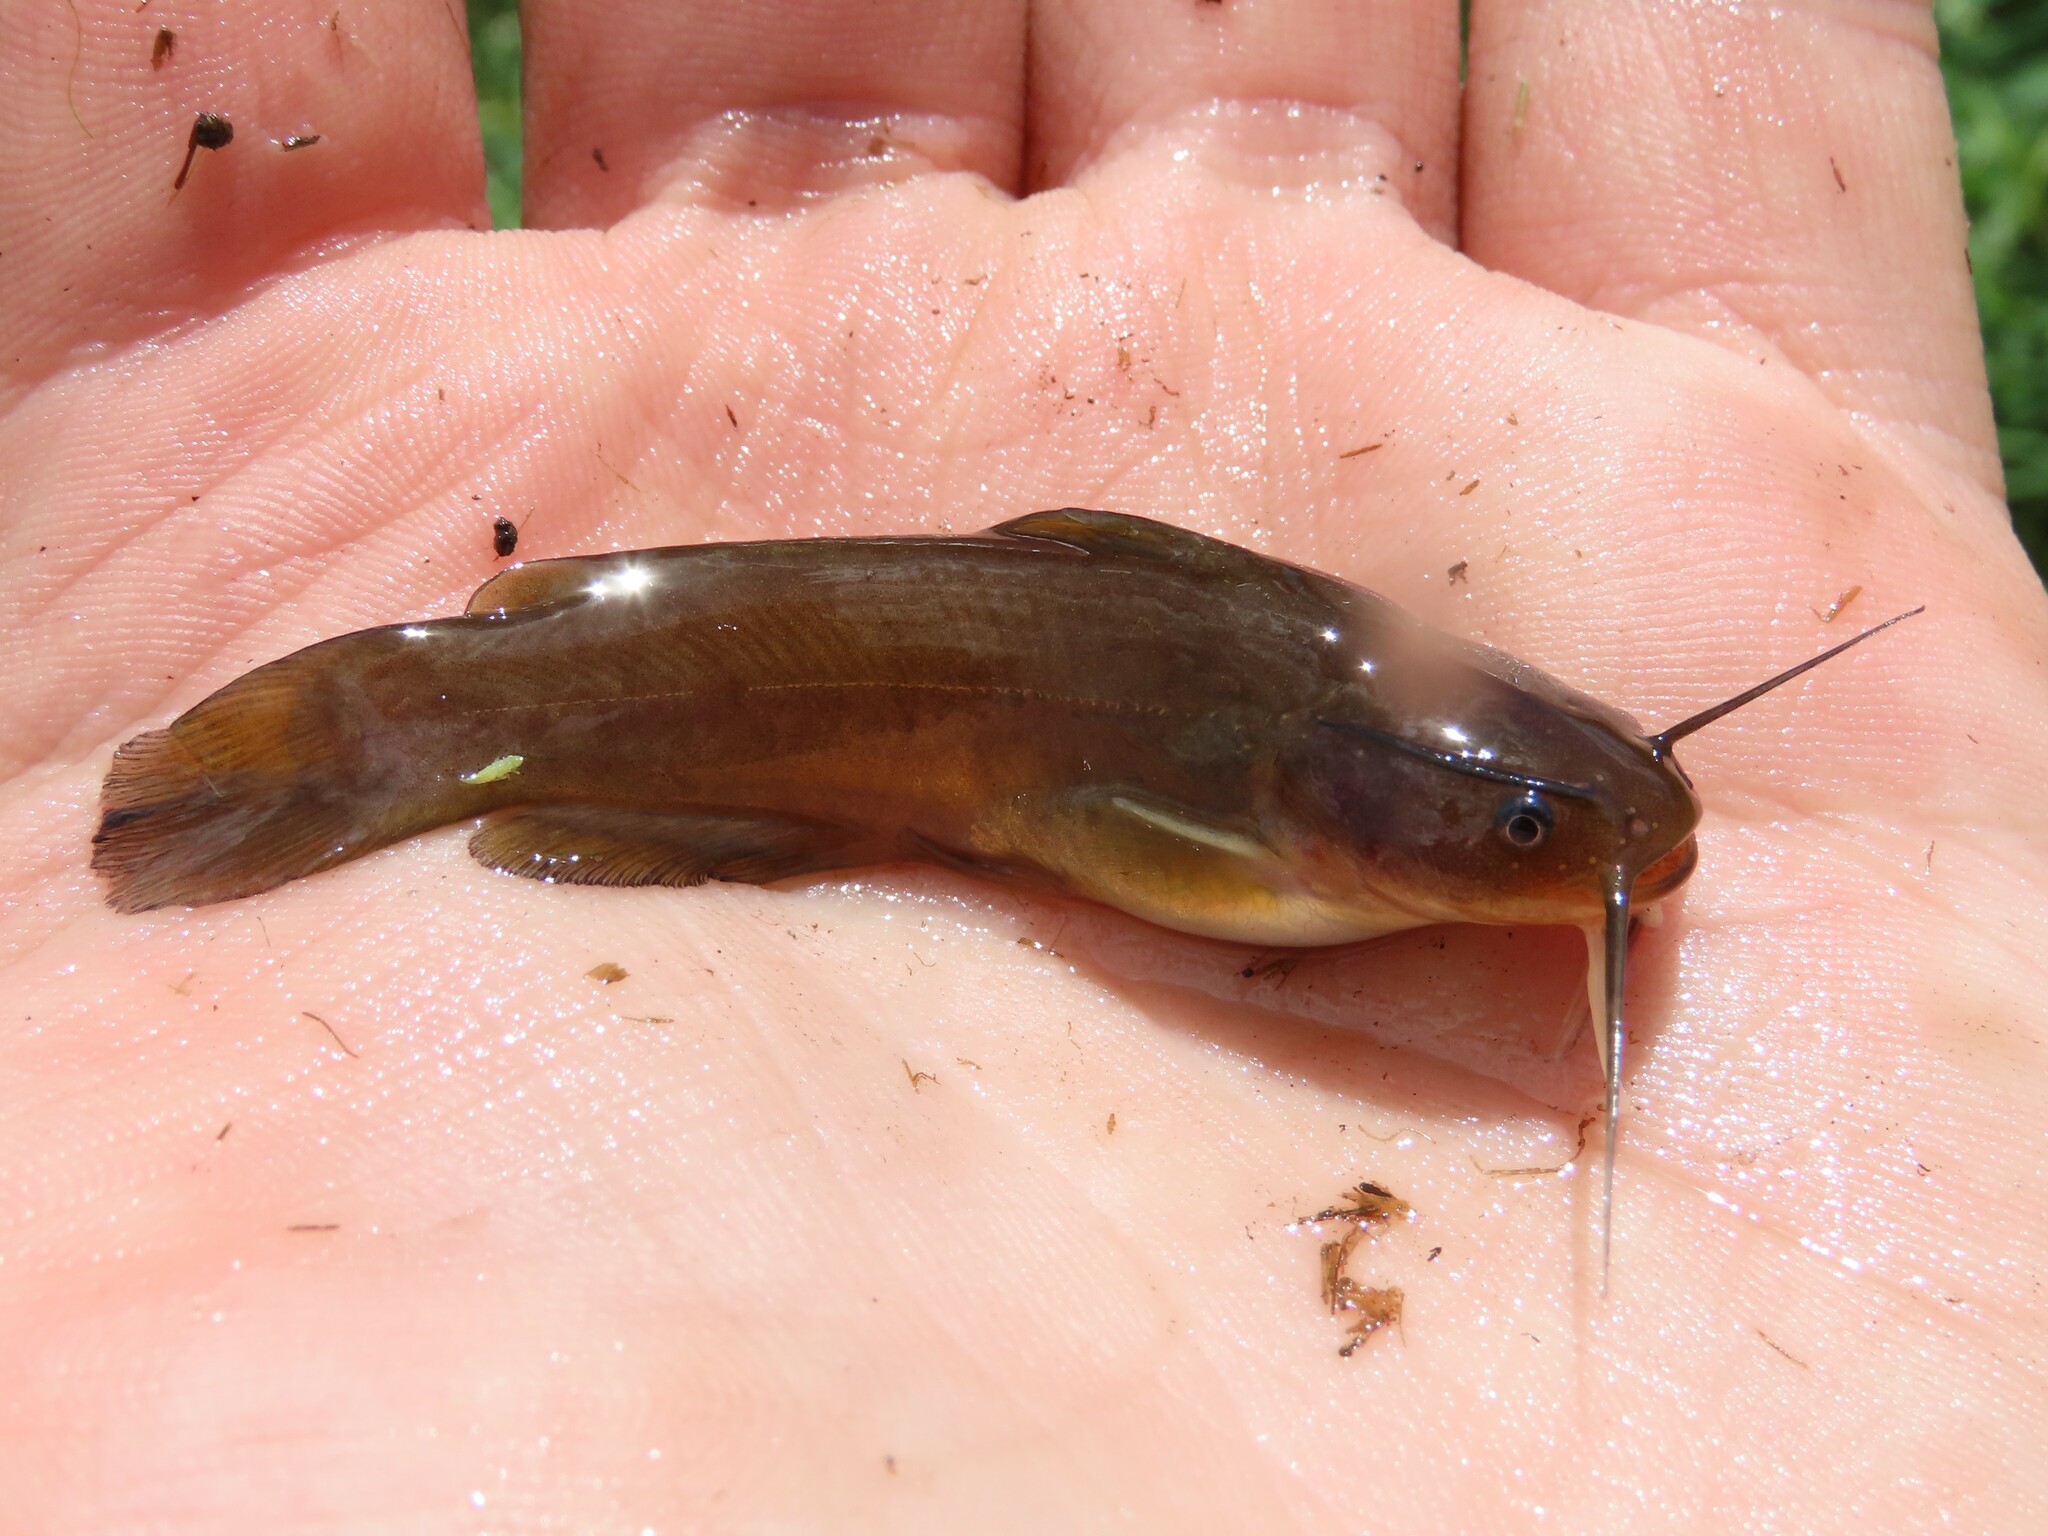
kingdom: Animalia
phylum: Chordata
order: Siluriformes
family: Ictaluridae
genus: Ameiurus
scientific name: Ameiurus natalis
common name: Yellow bullhead
